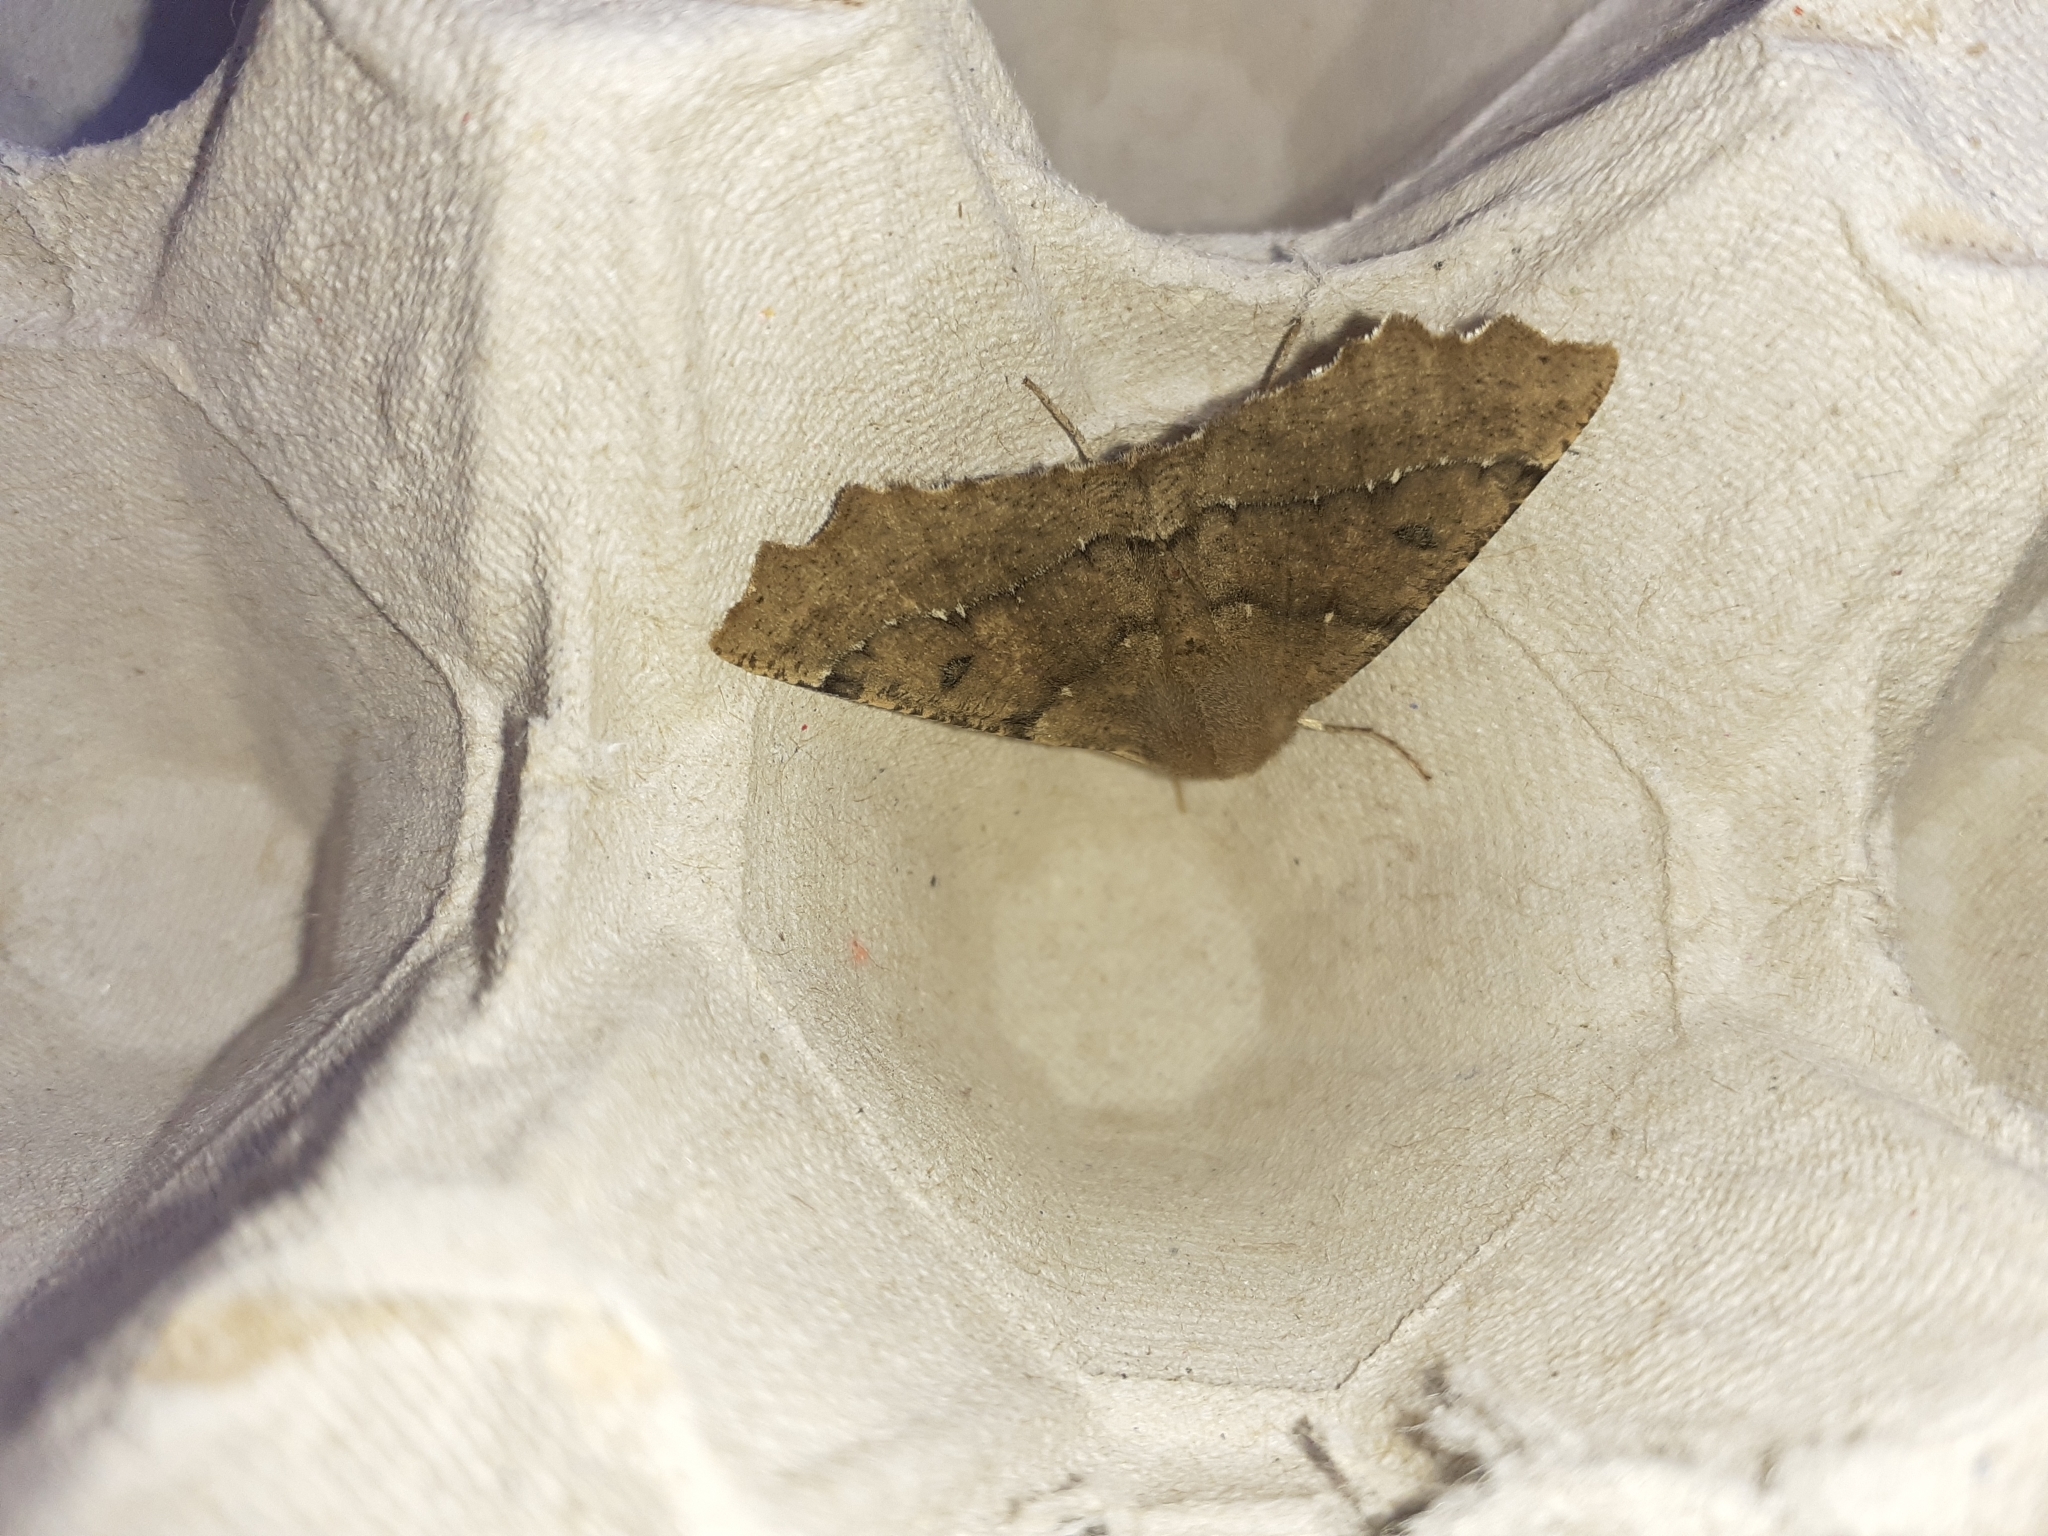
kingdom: Animalia
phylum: Arthropoda
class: Insecta
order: Lepidoptera
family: Geometridae
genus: Odontopera
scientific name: Odontopera bidentata
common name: Scalloped hazel
